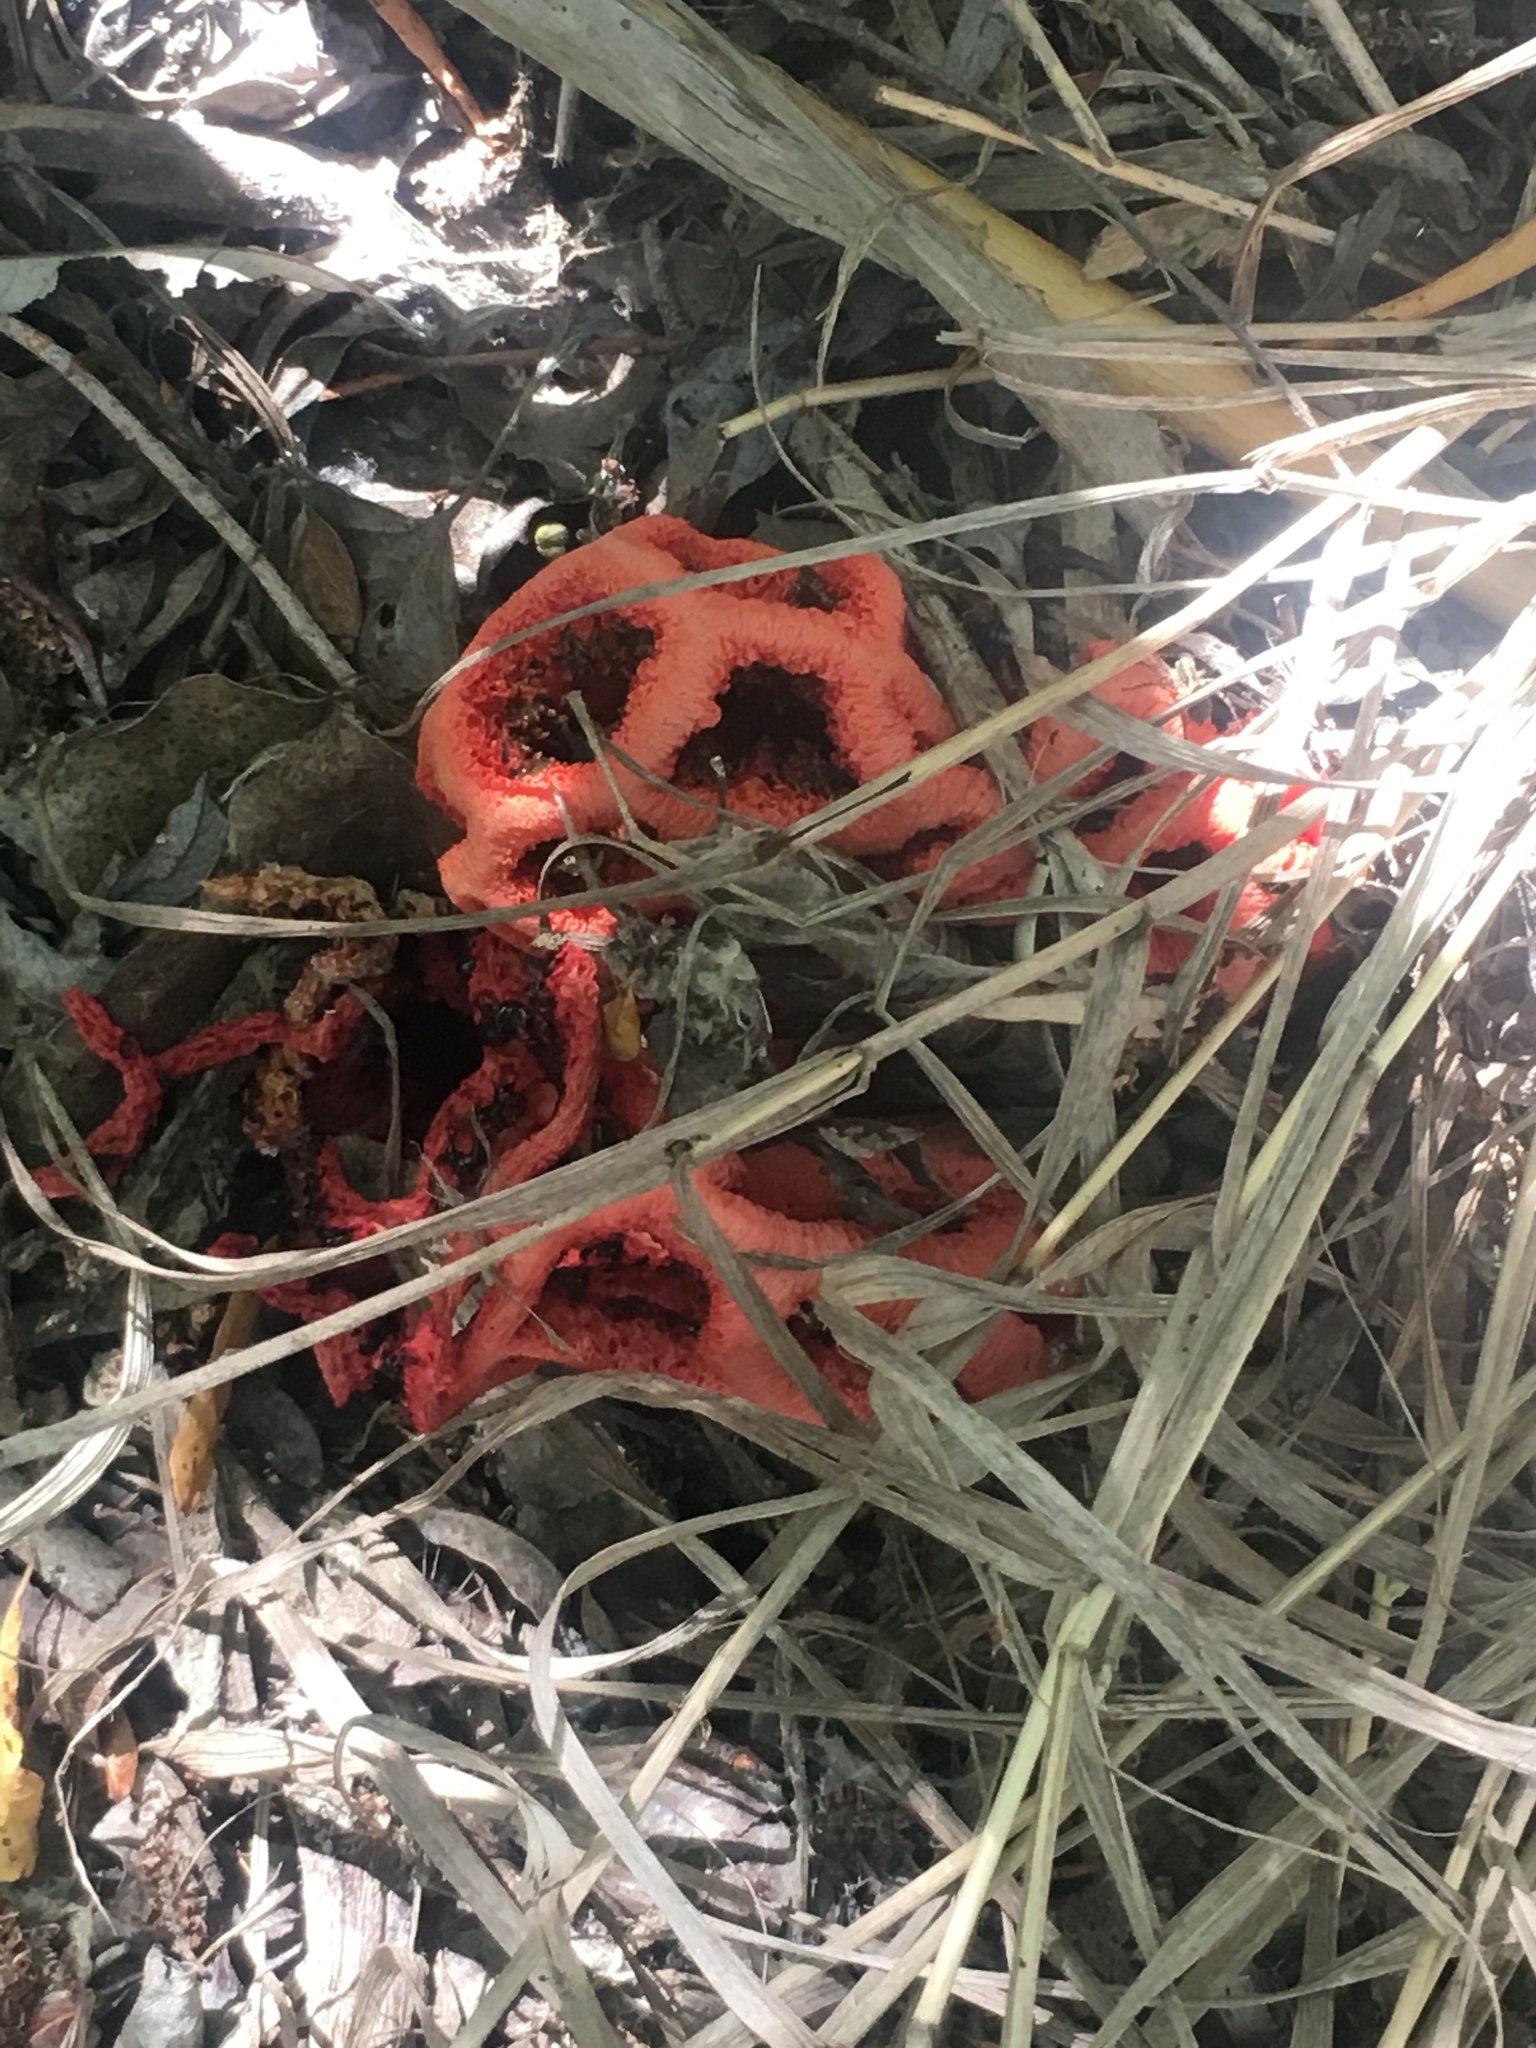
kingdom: Fungi
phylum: Basidiomycota
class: Agaricomycetes
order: Phallales
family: Phallaceae
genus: Clathrus
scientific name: Clathrus ruber
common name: Red cage
